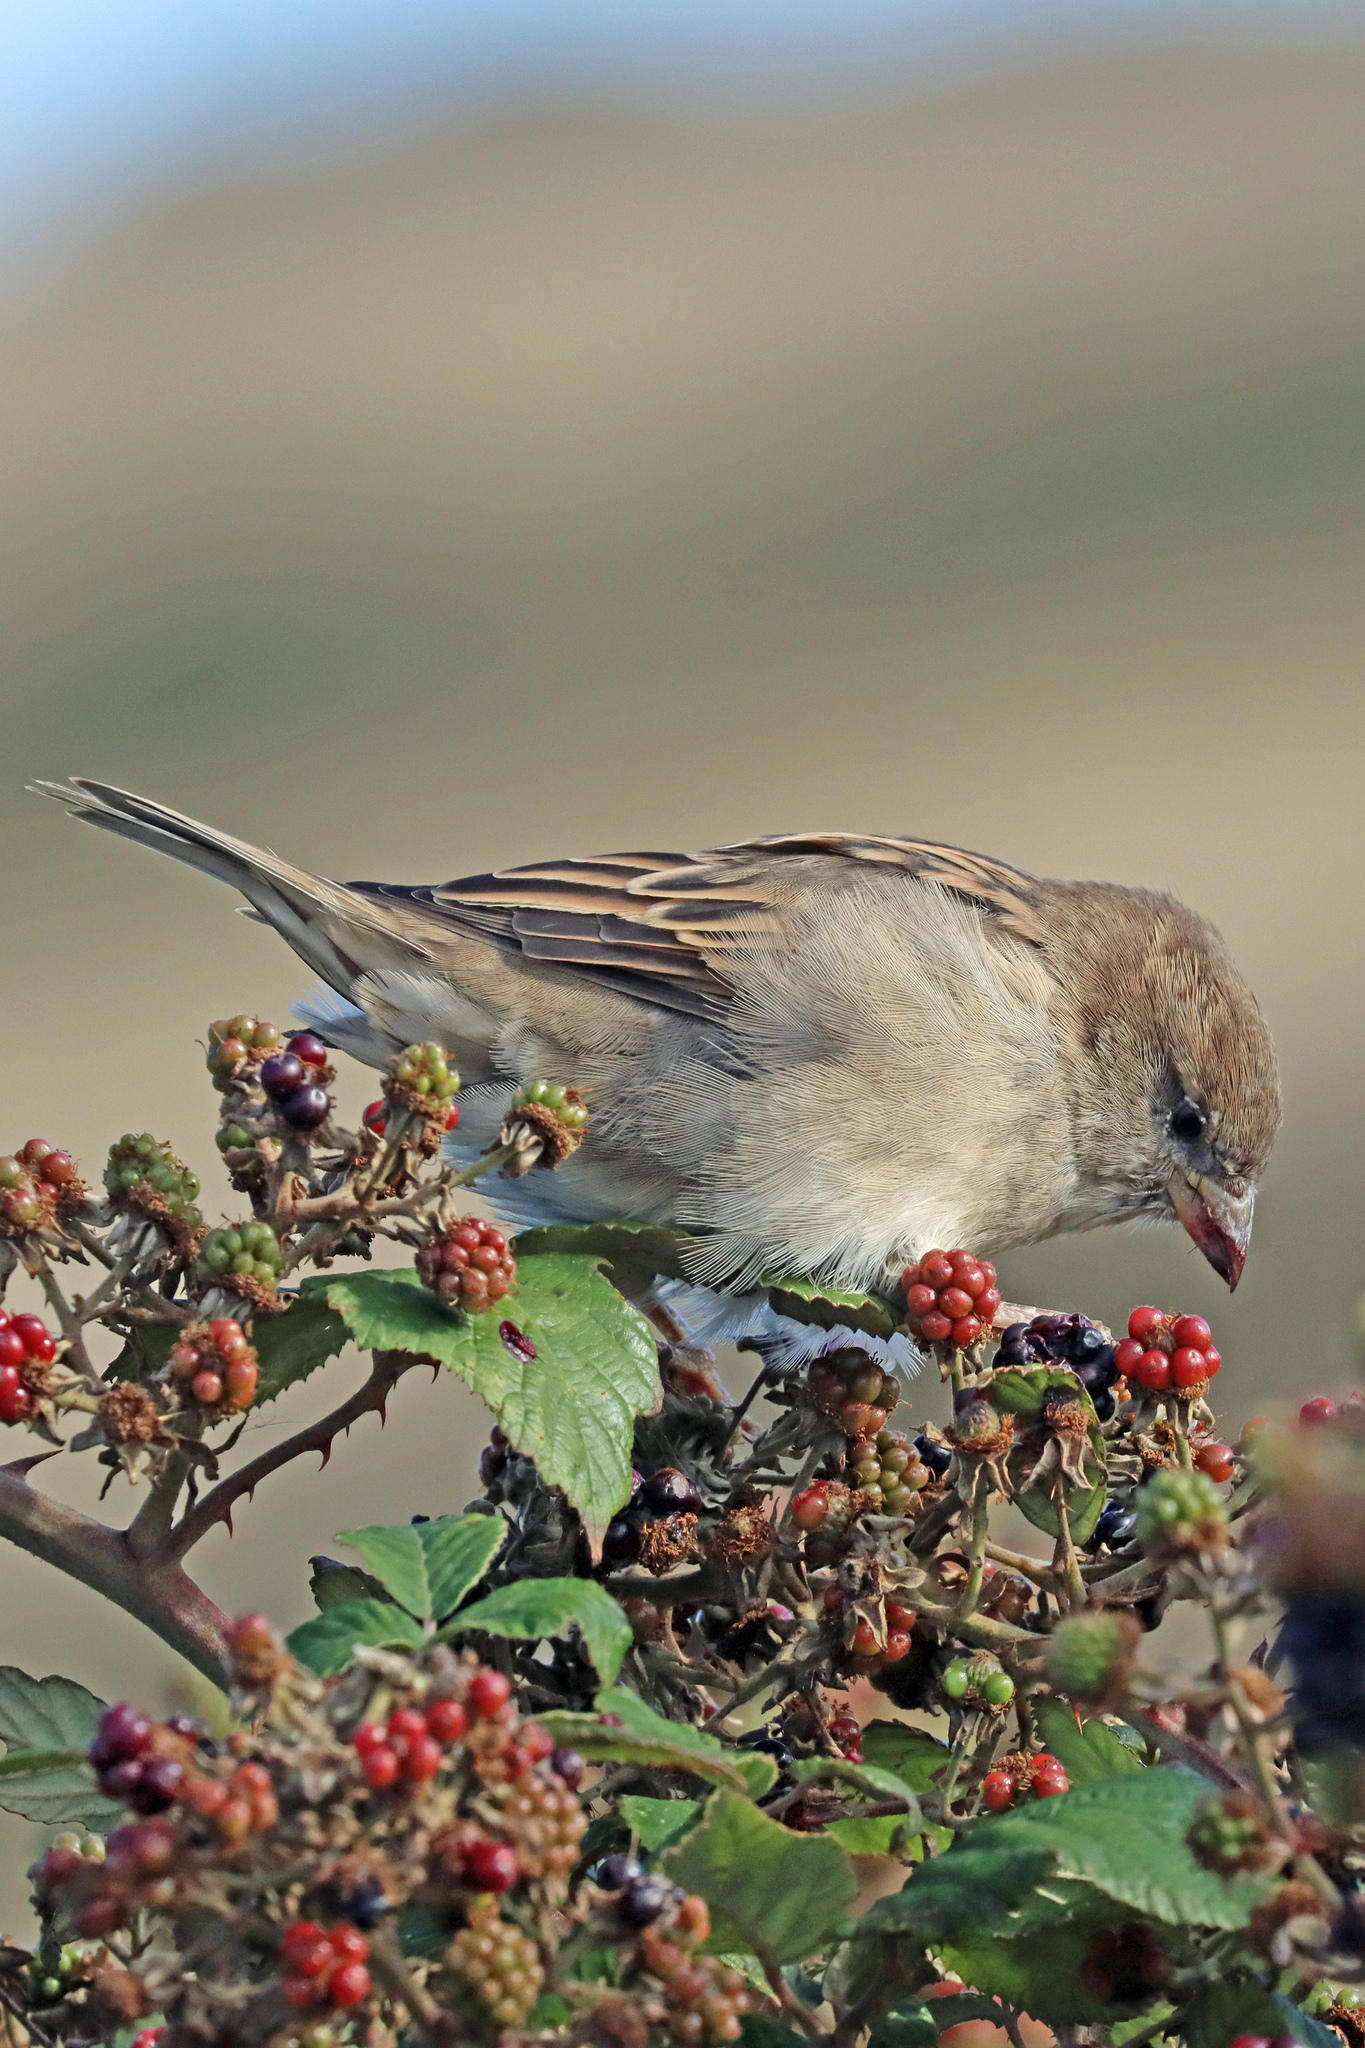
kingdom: Animalia
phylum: Chordata
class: Aves
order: Passeriformes
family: Passeridae
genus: Passer
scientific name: Passer domesticus
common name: House sparrow
